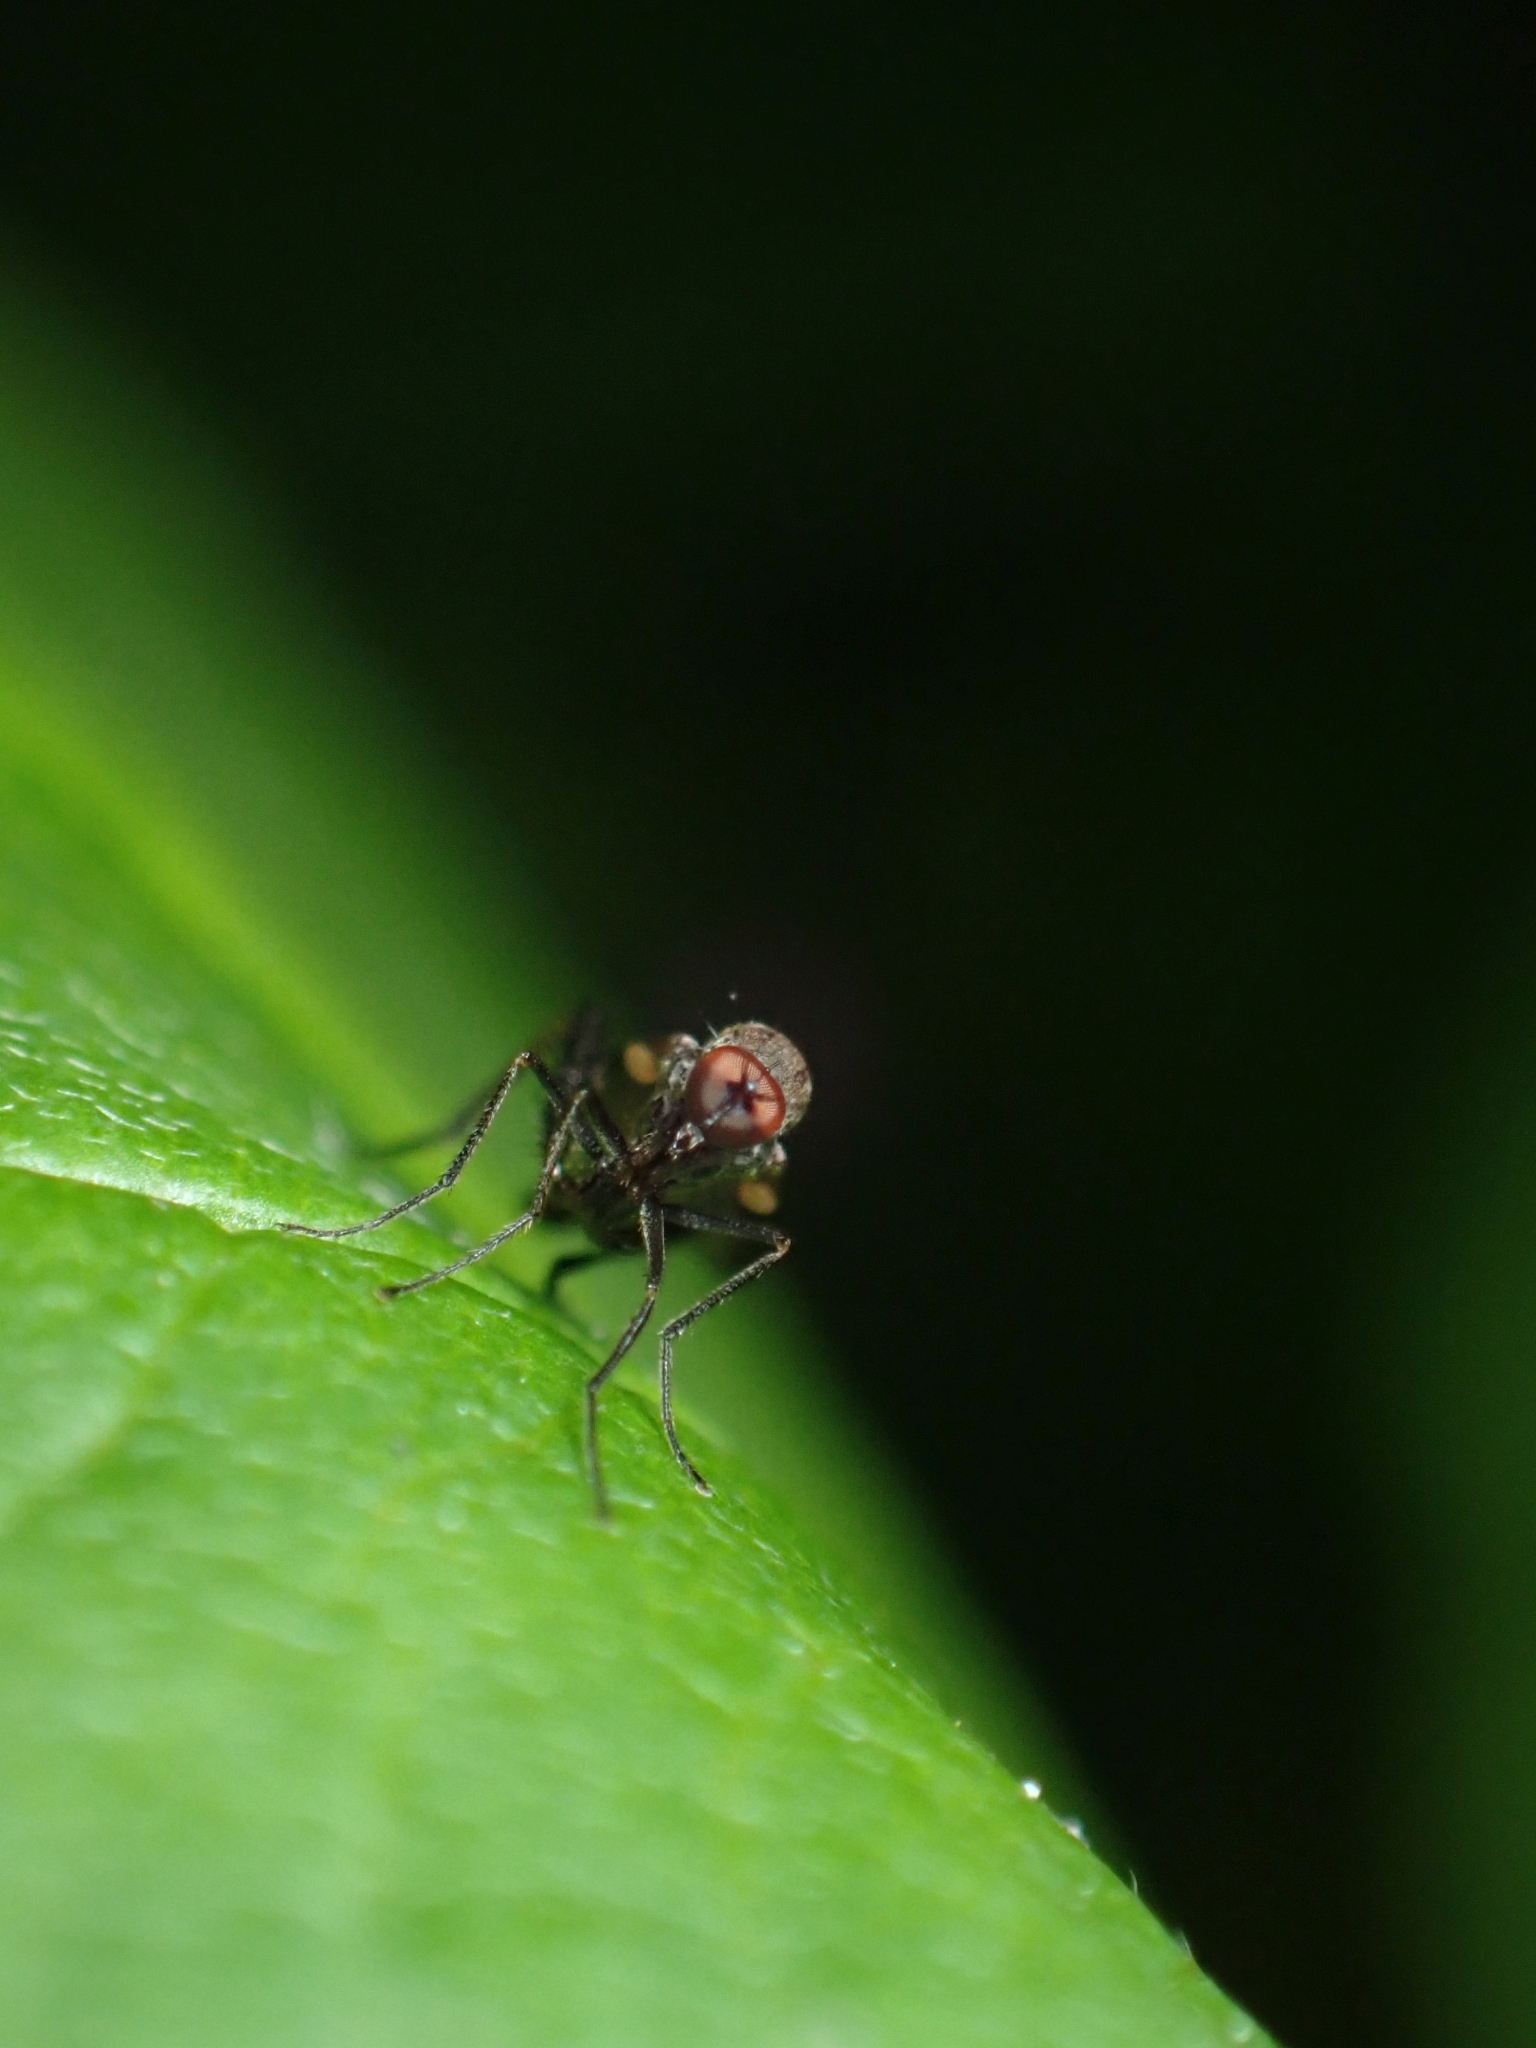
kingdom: Animalia
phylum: Arthropoda
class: Insecta
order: Diptera
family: Hybotidae
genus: Hoplocyrtoma
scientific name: Hoplocyrtoma procera
